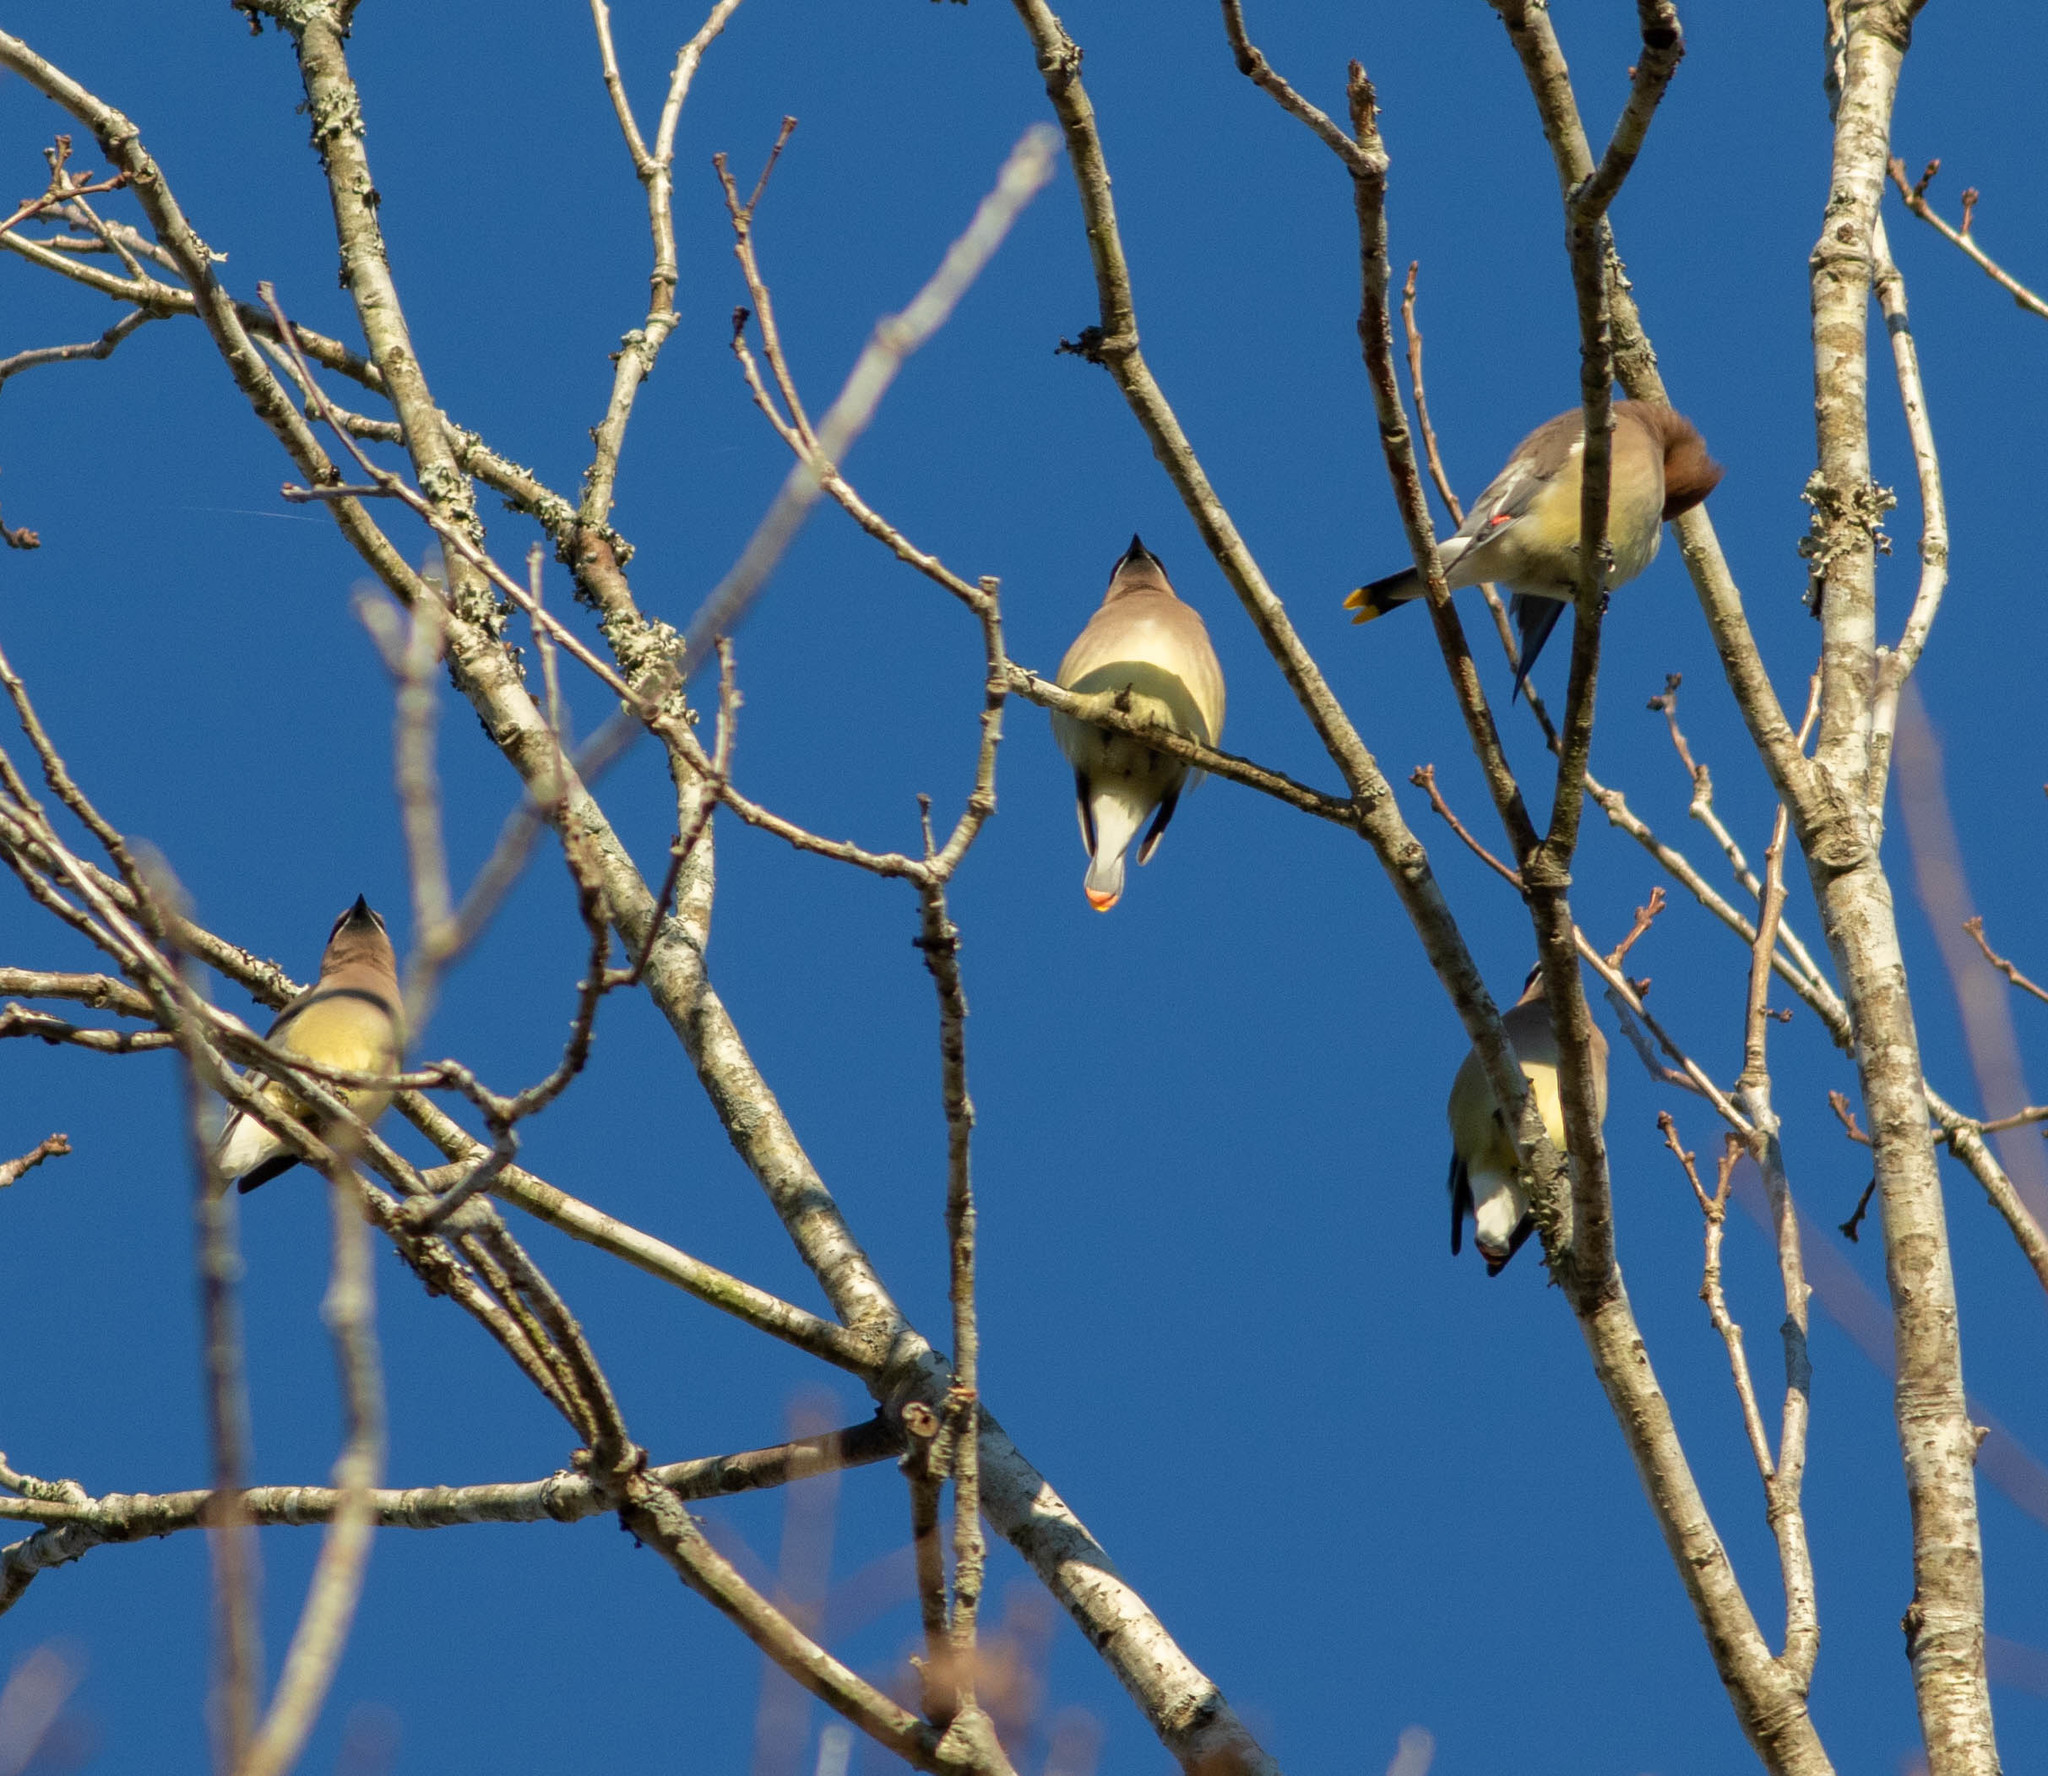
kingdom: Animalia
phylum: Chordata
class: Aves
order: Passeriformes
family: Bombycillidae
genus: Bombycilla
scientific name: Bombycilla cedrorum
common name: Cedar waxwing
